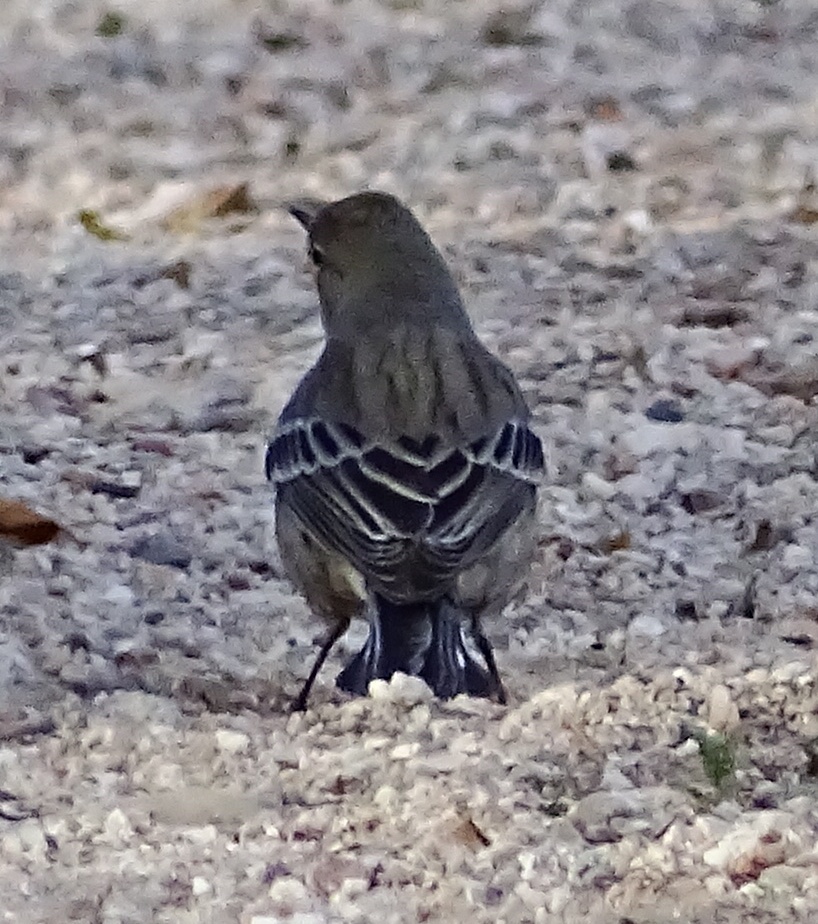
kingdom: Animalia
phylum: Chordata
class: Aves
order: Passeriformes
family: Parulidae
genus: Setophaga
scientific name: Setophaga auduboni
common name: Audubon's warbler
